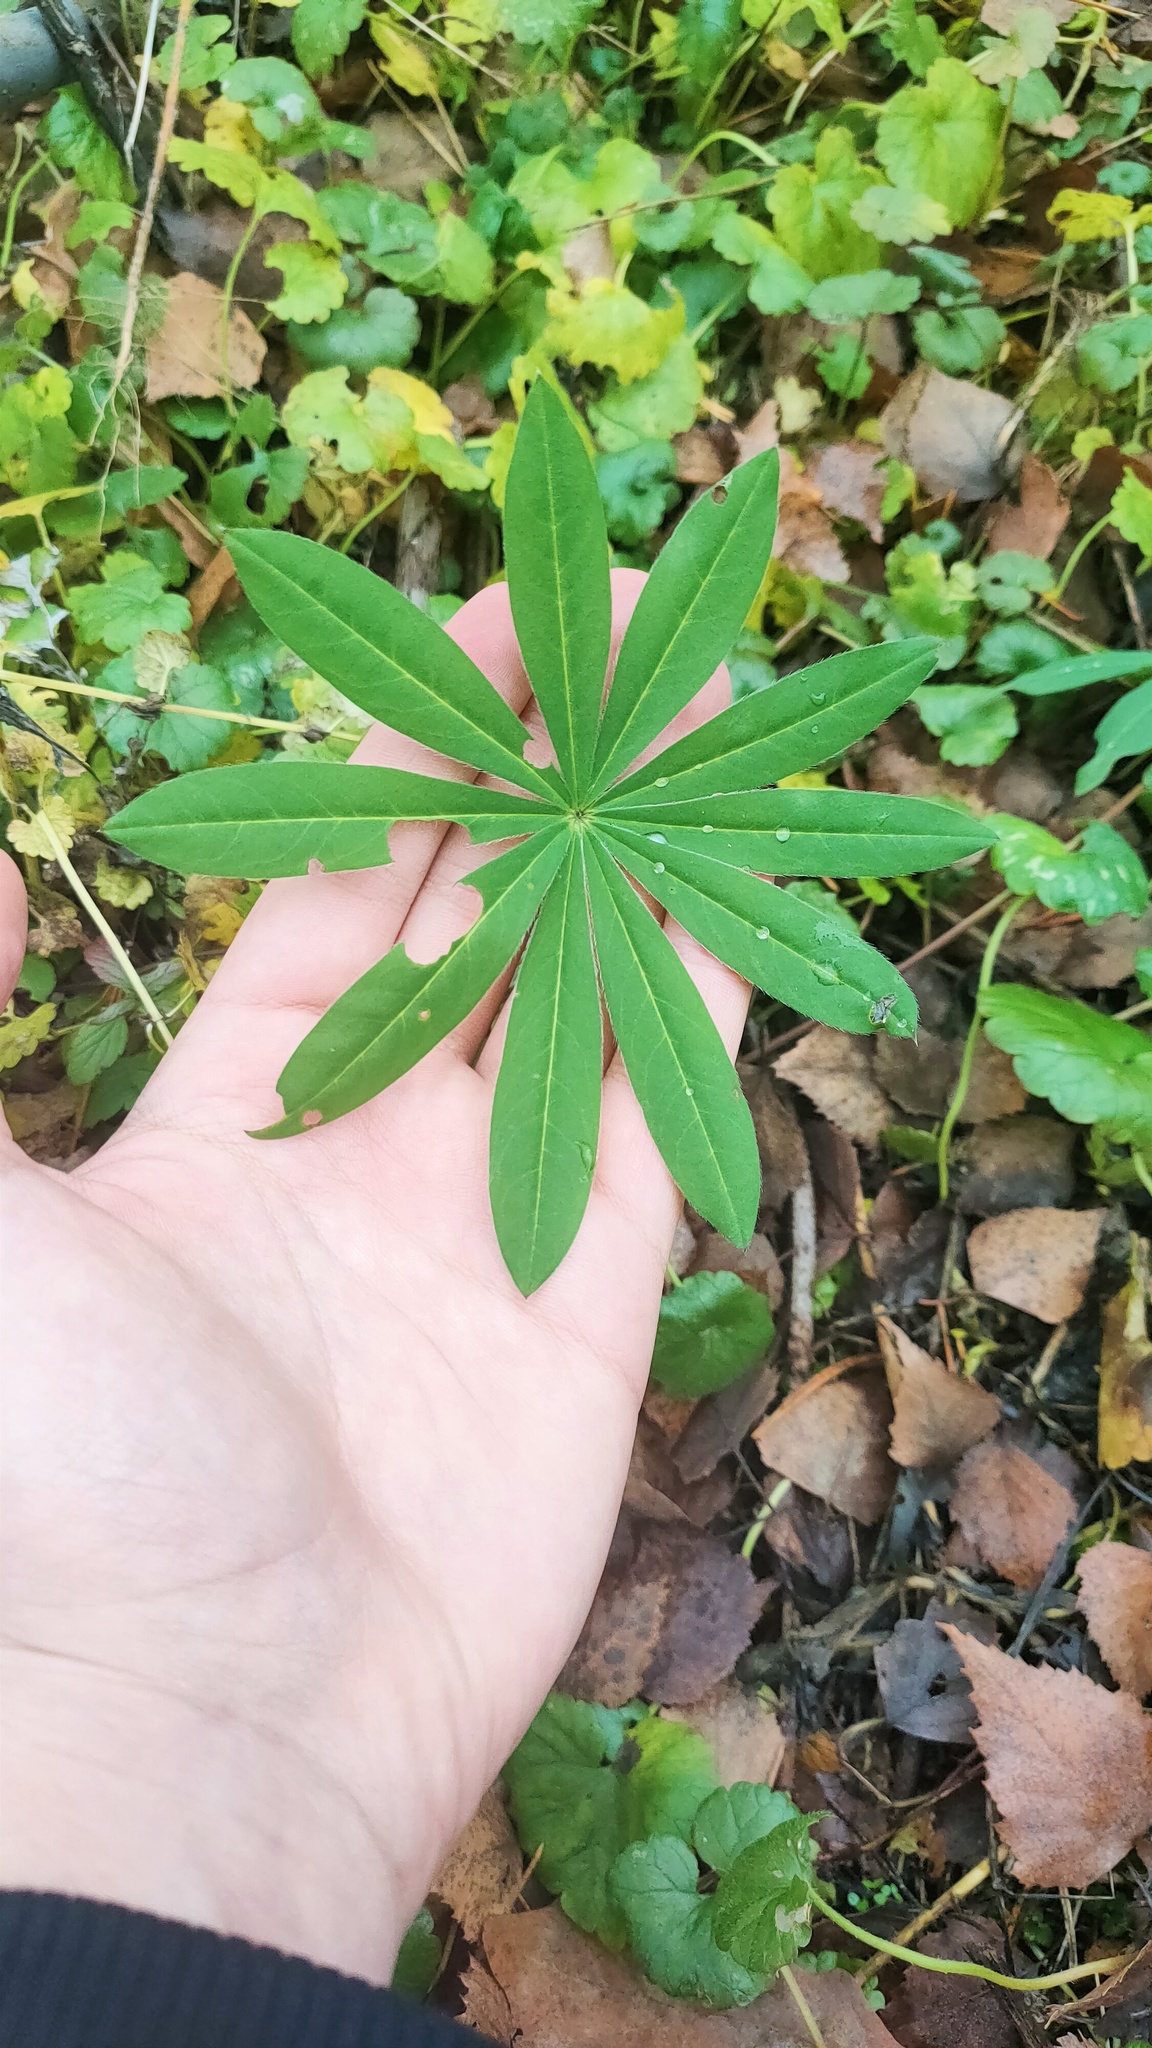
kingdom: Plantae
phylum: Tracheophyta
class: Magnoliopsida
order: Fabales
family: Fabaceae
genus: Lupinus
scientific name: Lupinus polyphyllus
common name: Garden lupin
